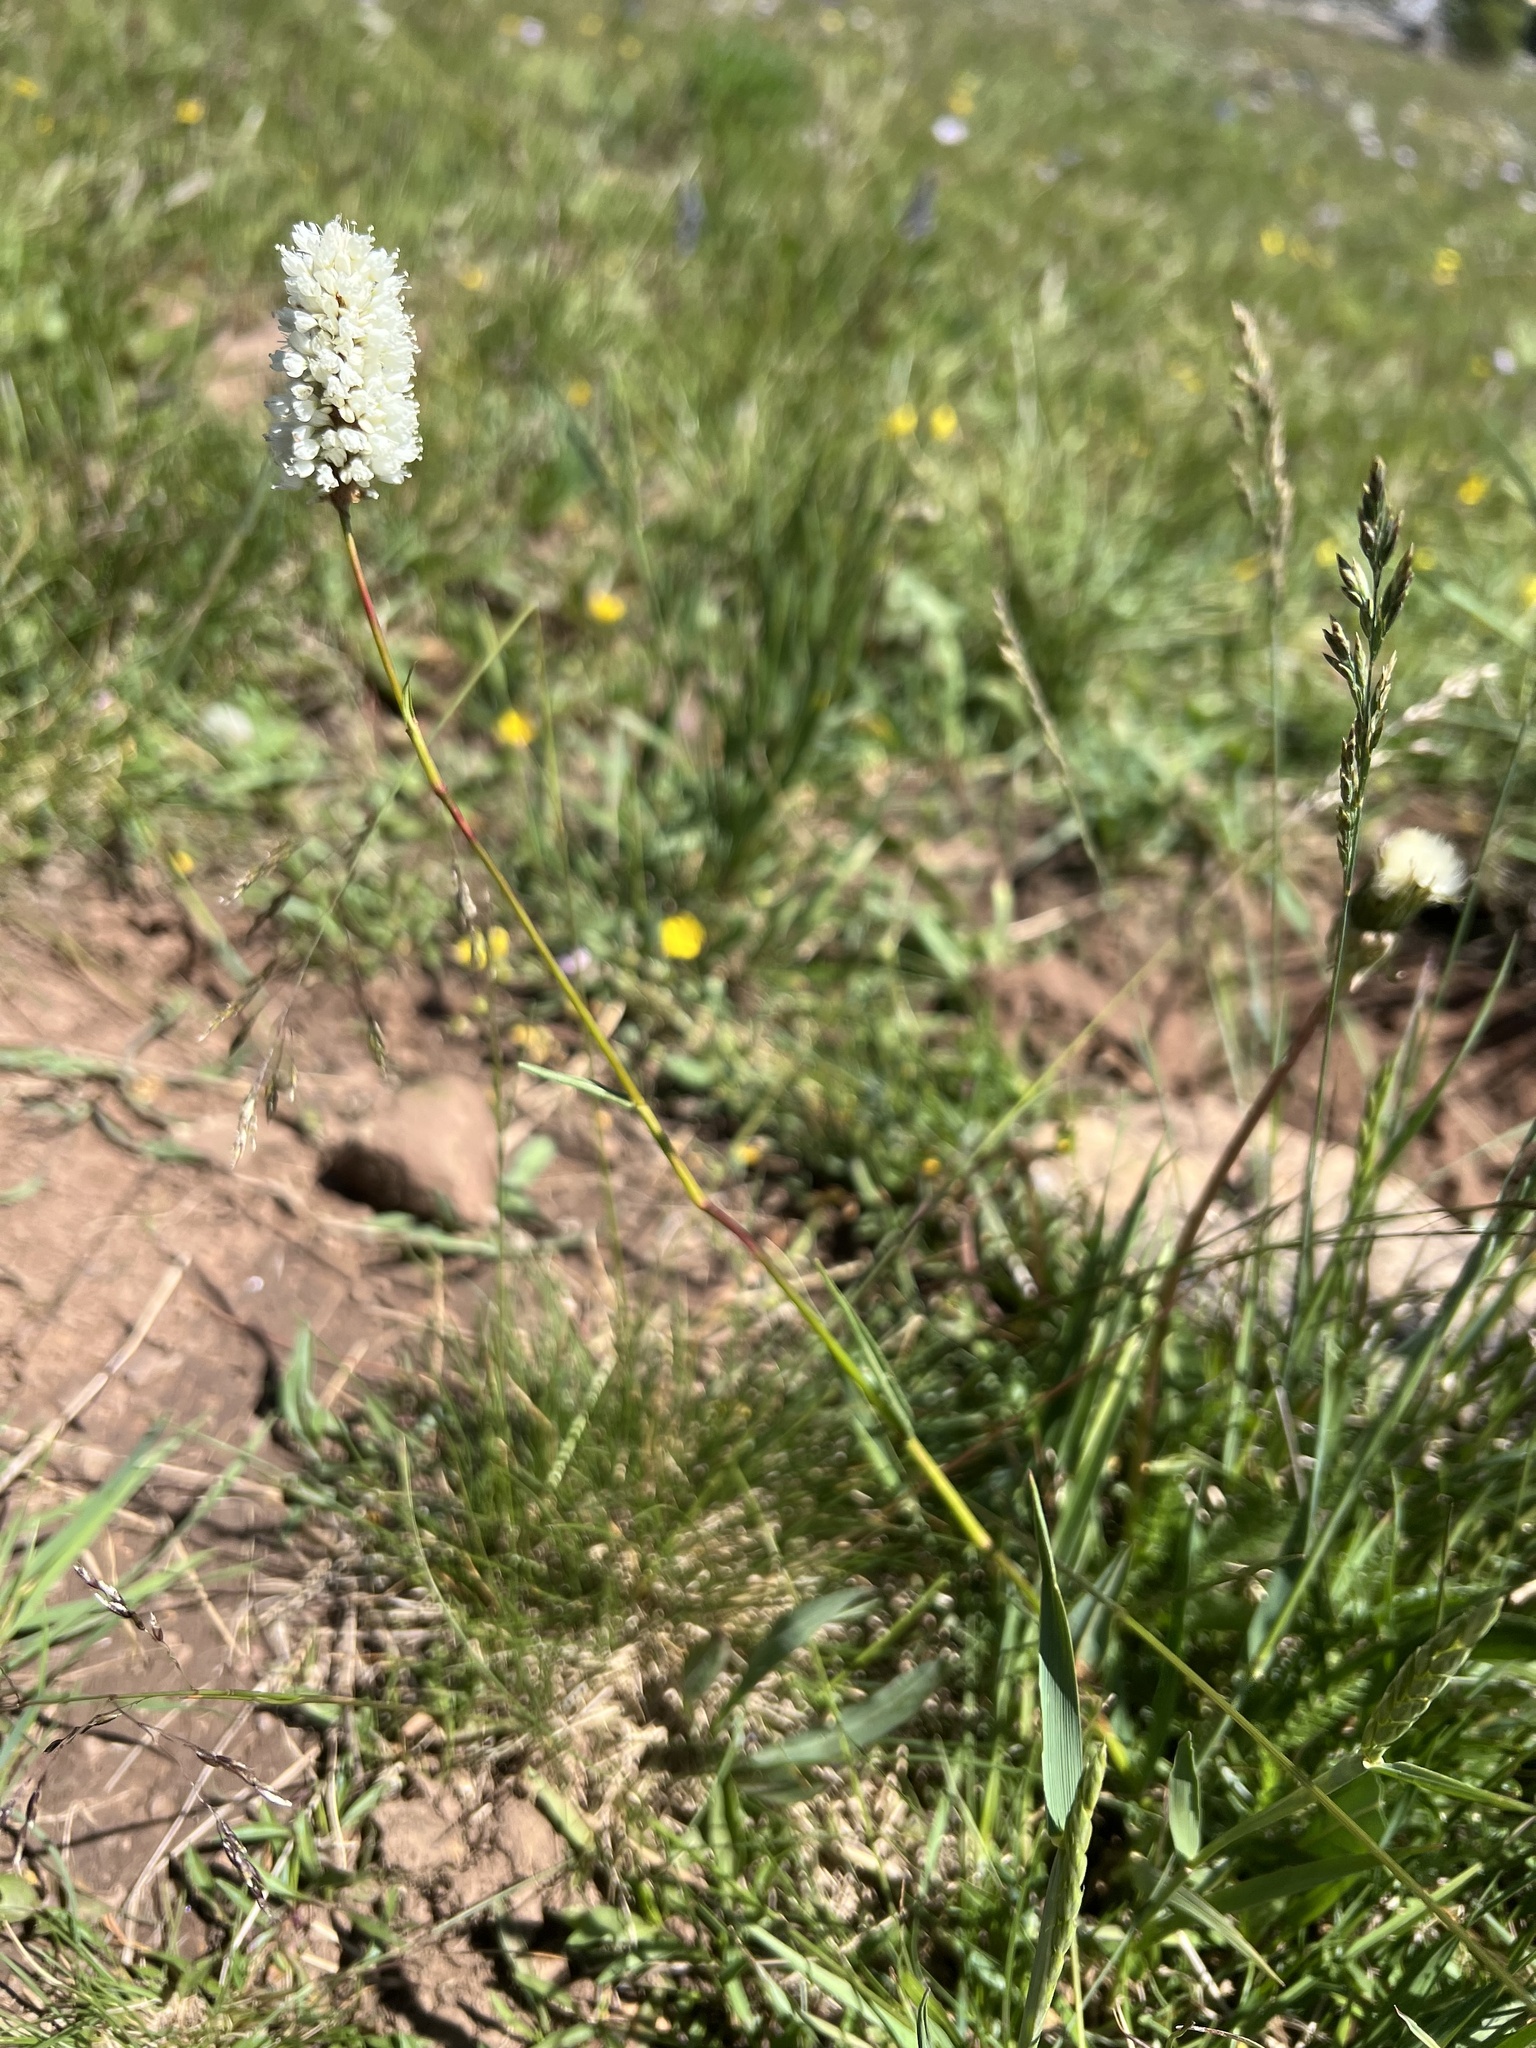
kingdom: Plantae
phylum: Tracheophyta
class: Magnoliopsida
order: Caryophyllales
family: Polygonaceae
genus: Bistorta
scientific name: Bistorta bistortoides
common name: American bistort
